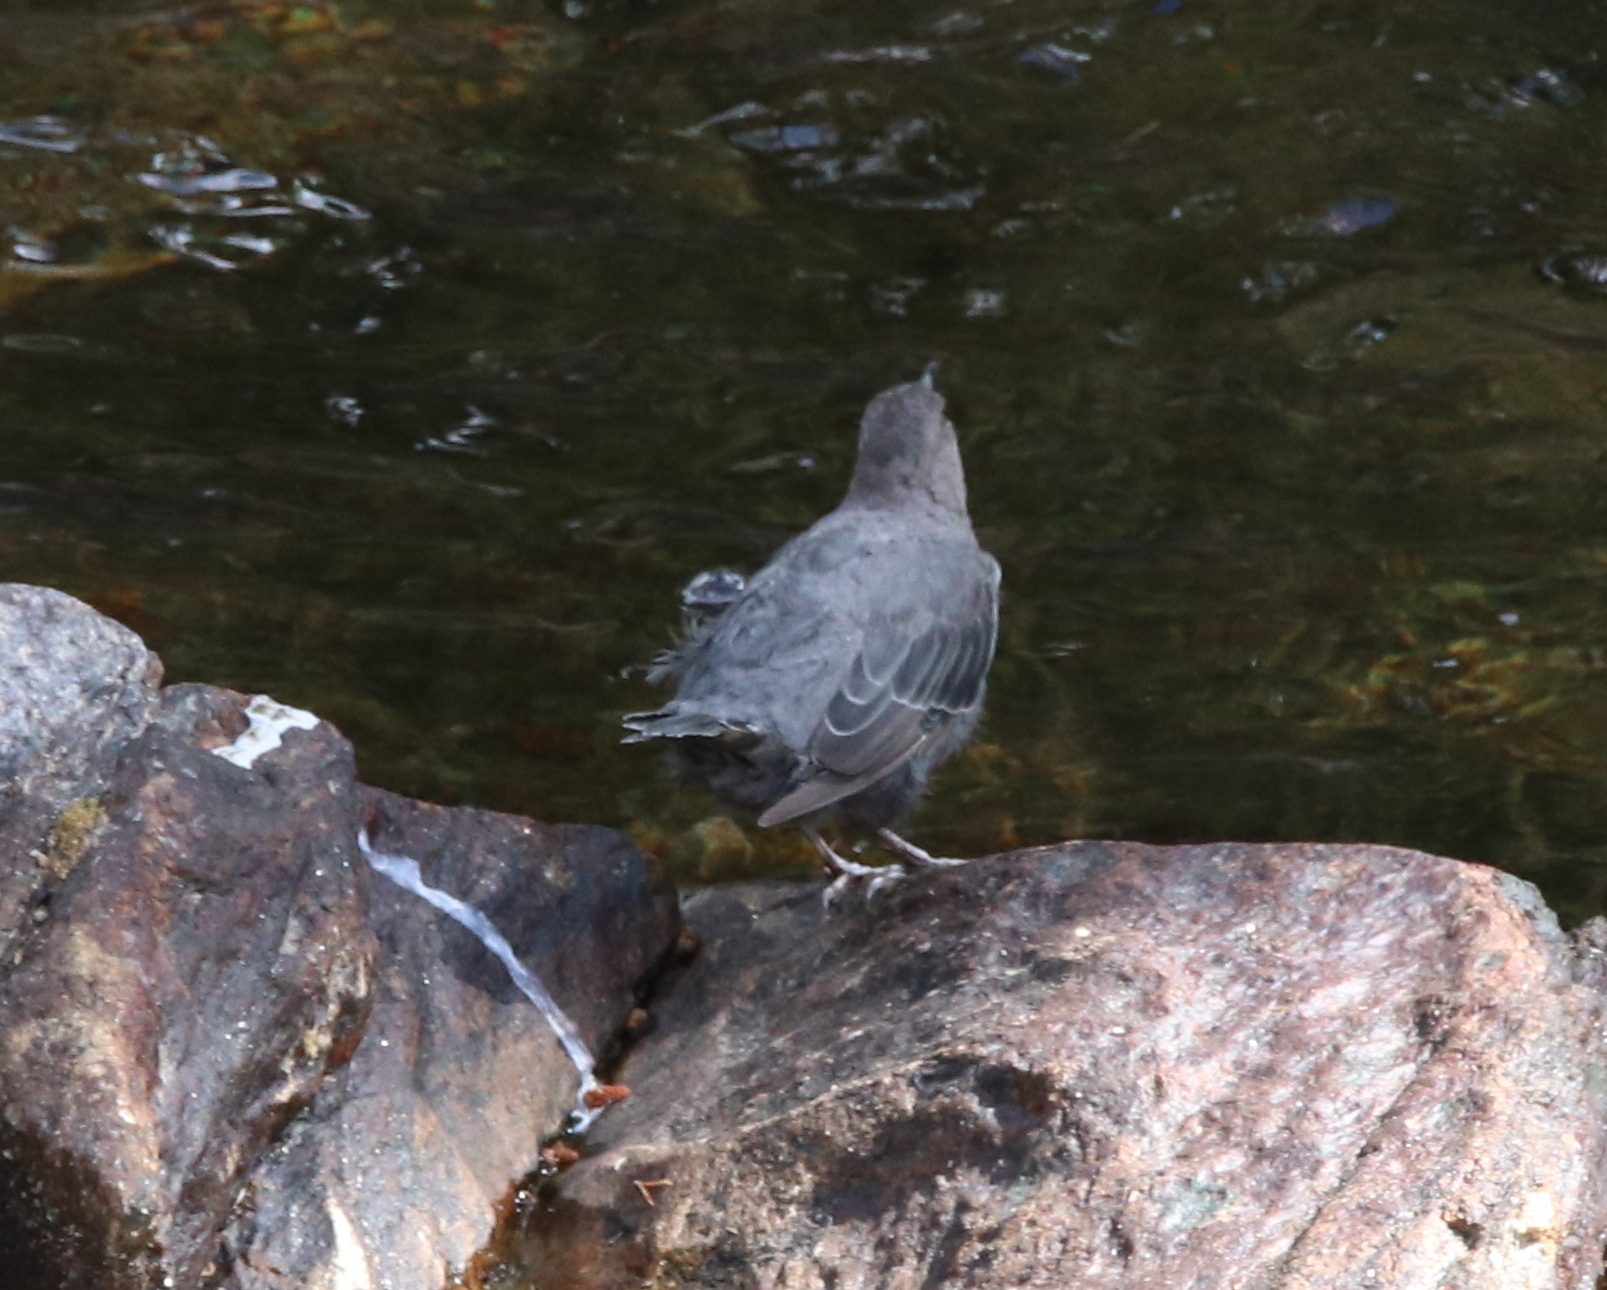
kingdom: Animalia
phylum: Chordata
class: Aves
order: Passeriformes
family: Cinclidae
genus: Cinclus
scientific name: Cinclus mexicanus
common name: American dipper
